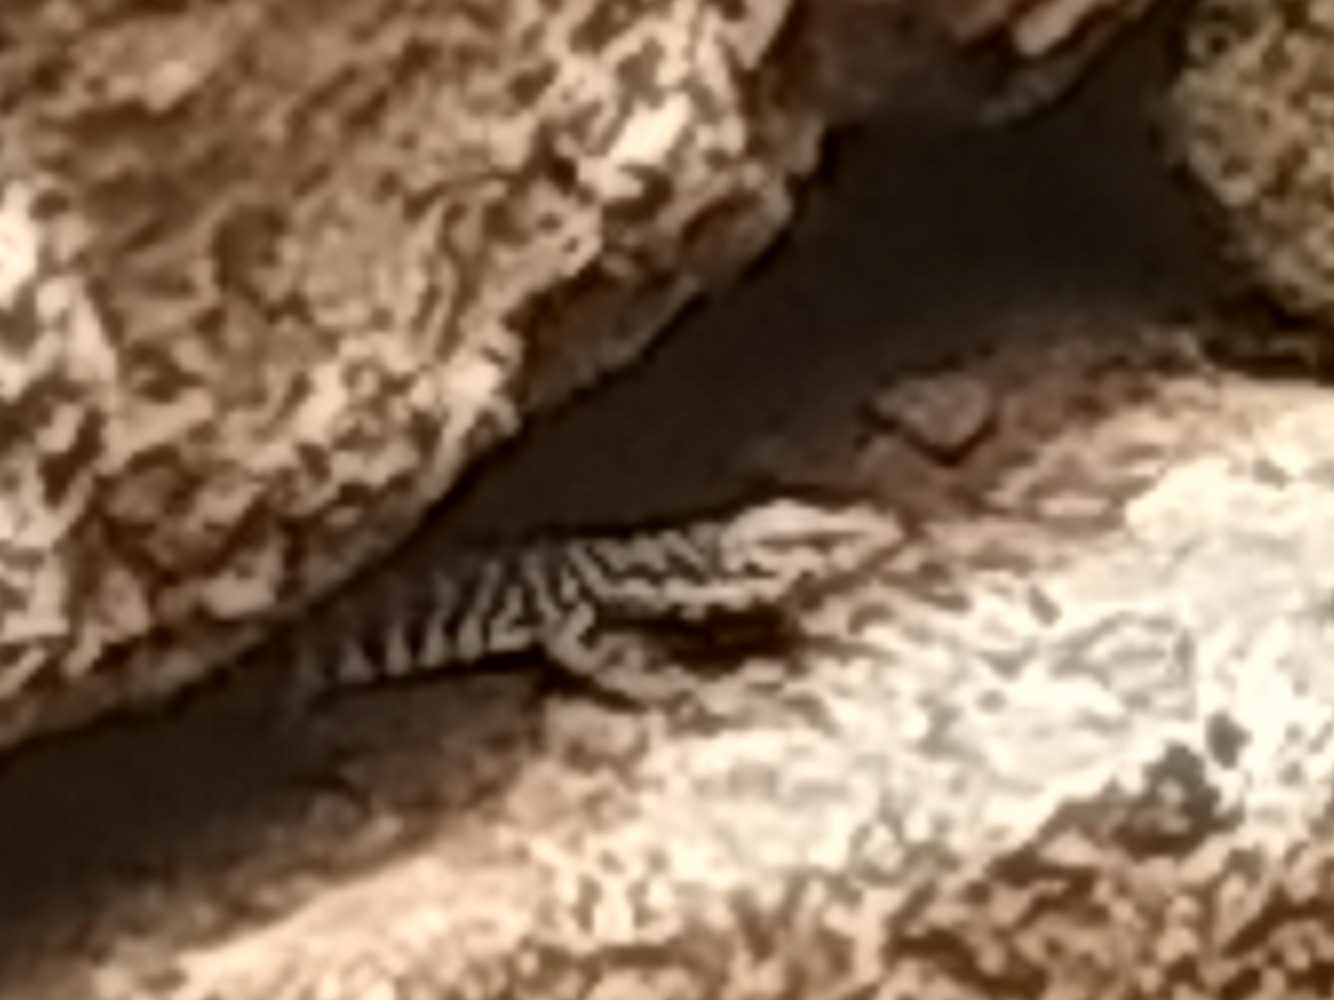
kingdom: Animalia
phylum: Chordata
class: Squamata
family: Varanidae
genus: Varanus
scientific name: Varanus bengalensis
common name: Bengal monitor
